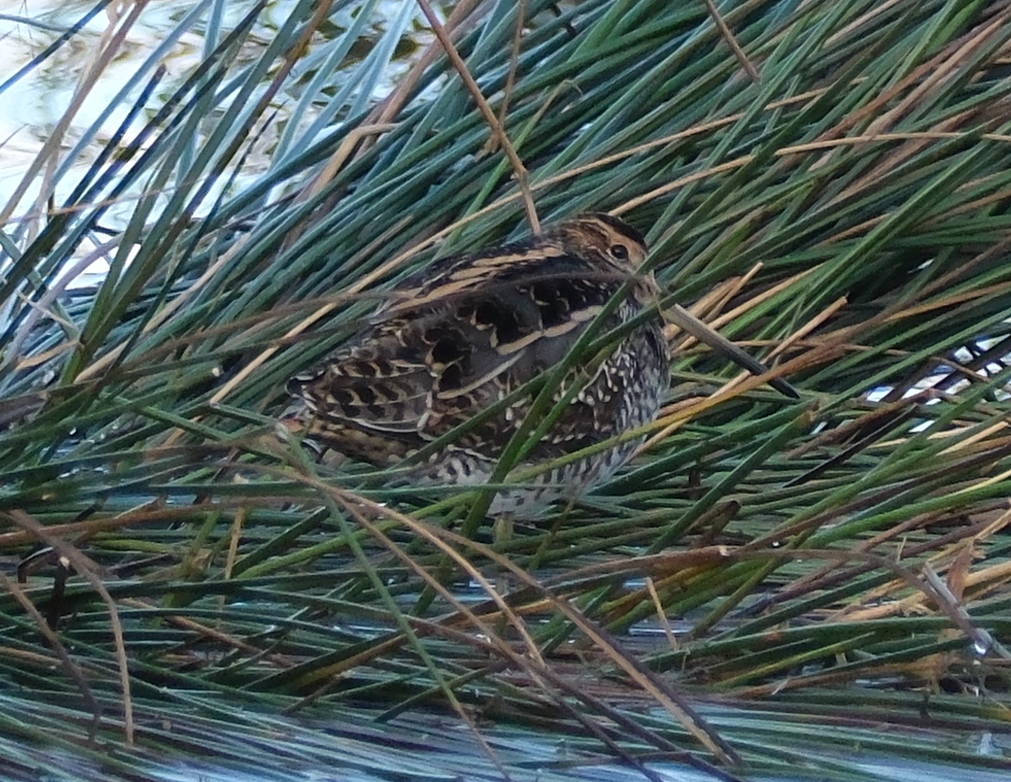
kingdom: Animalia
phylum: Chordata
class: Aves
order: Charadriiformes
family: Scolopacidae
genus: Gallinago
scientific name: Gallinago gallinago
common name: Common snipe
